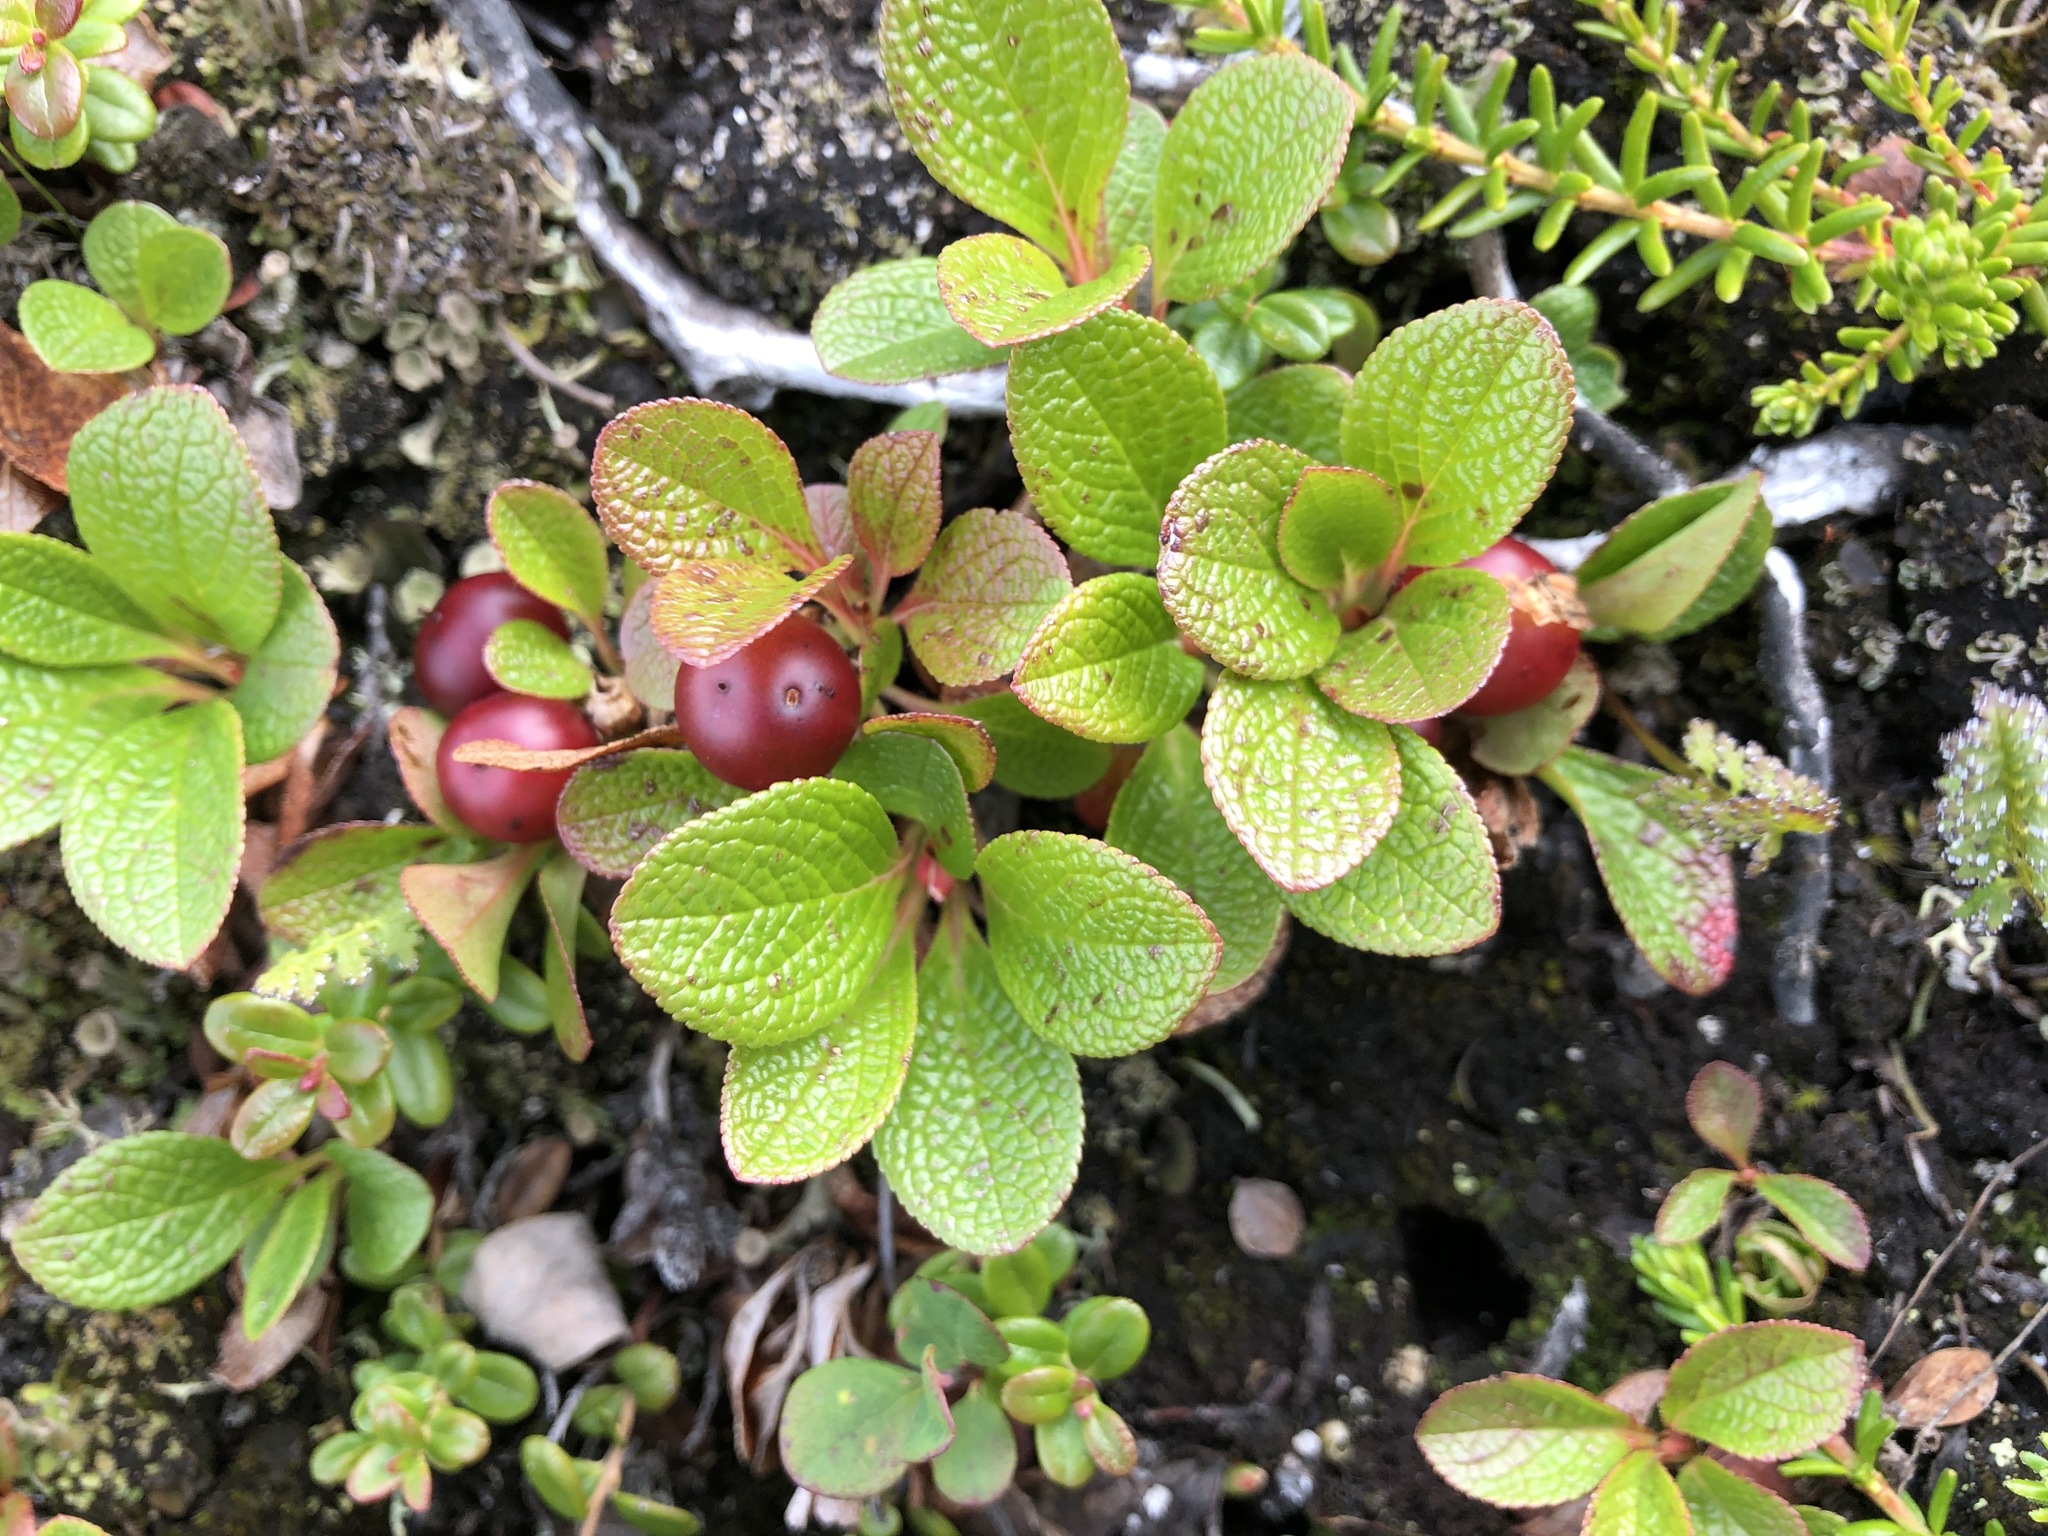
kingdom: Plantae
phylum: Tracheophyta
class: Magnoliopsida
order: Ericales
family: Ericaceae
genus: Arctostaphylos
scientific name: Arctostaphylos rubra
